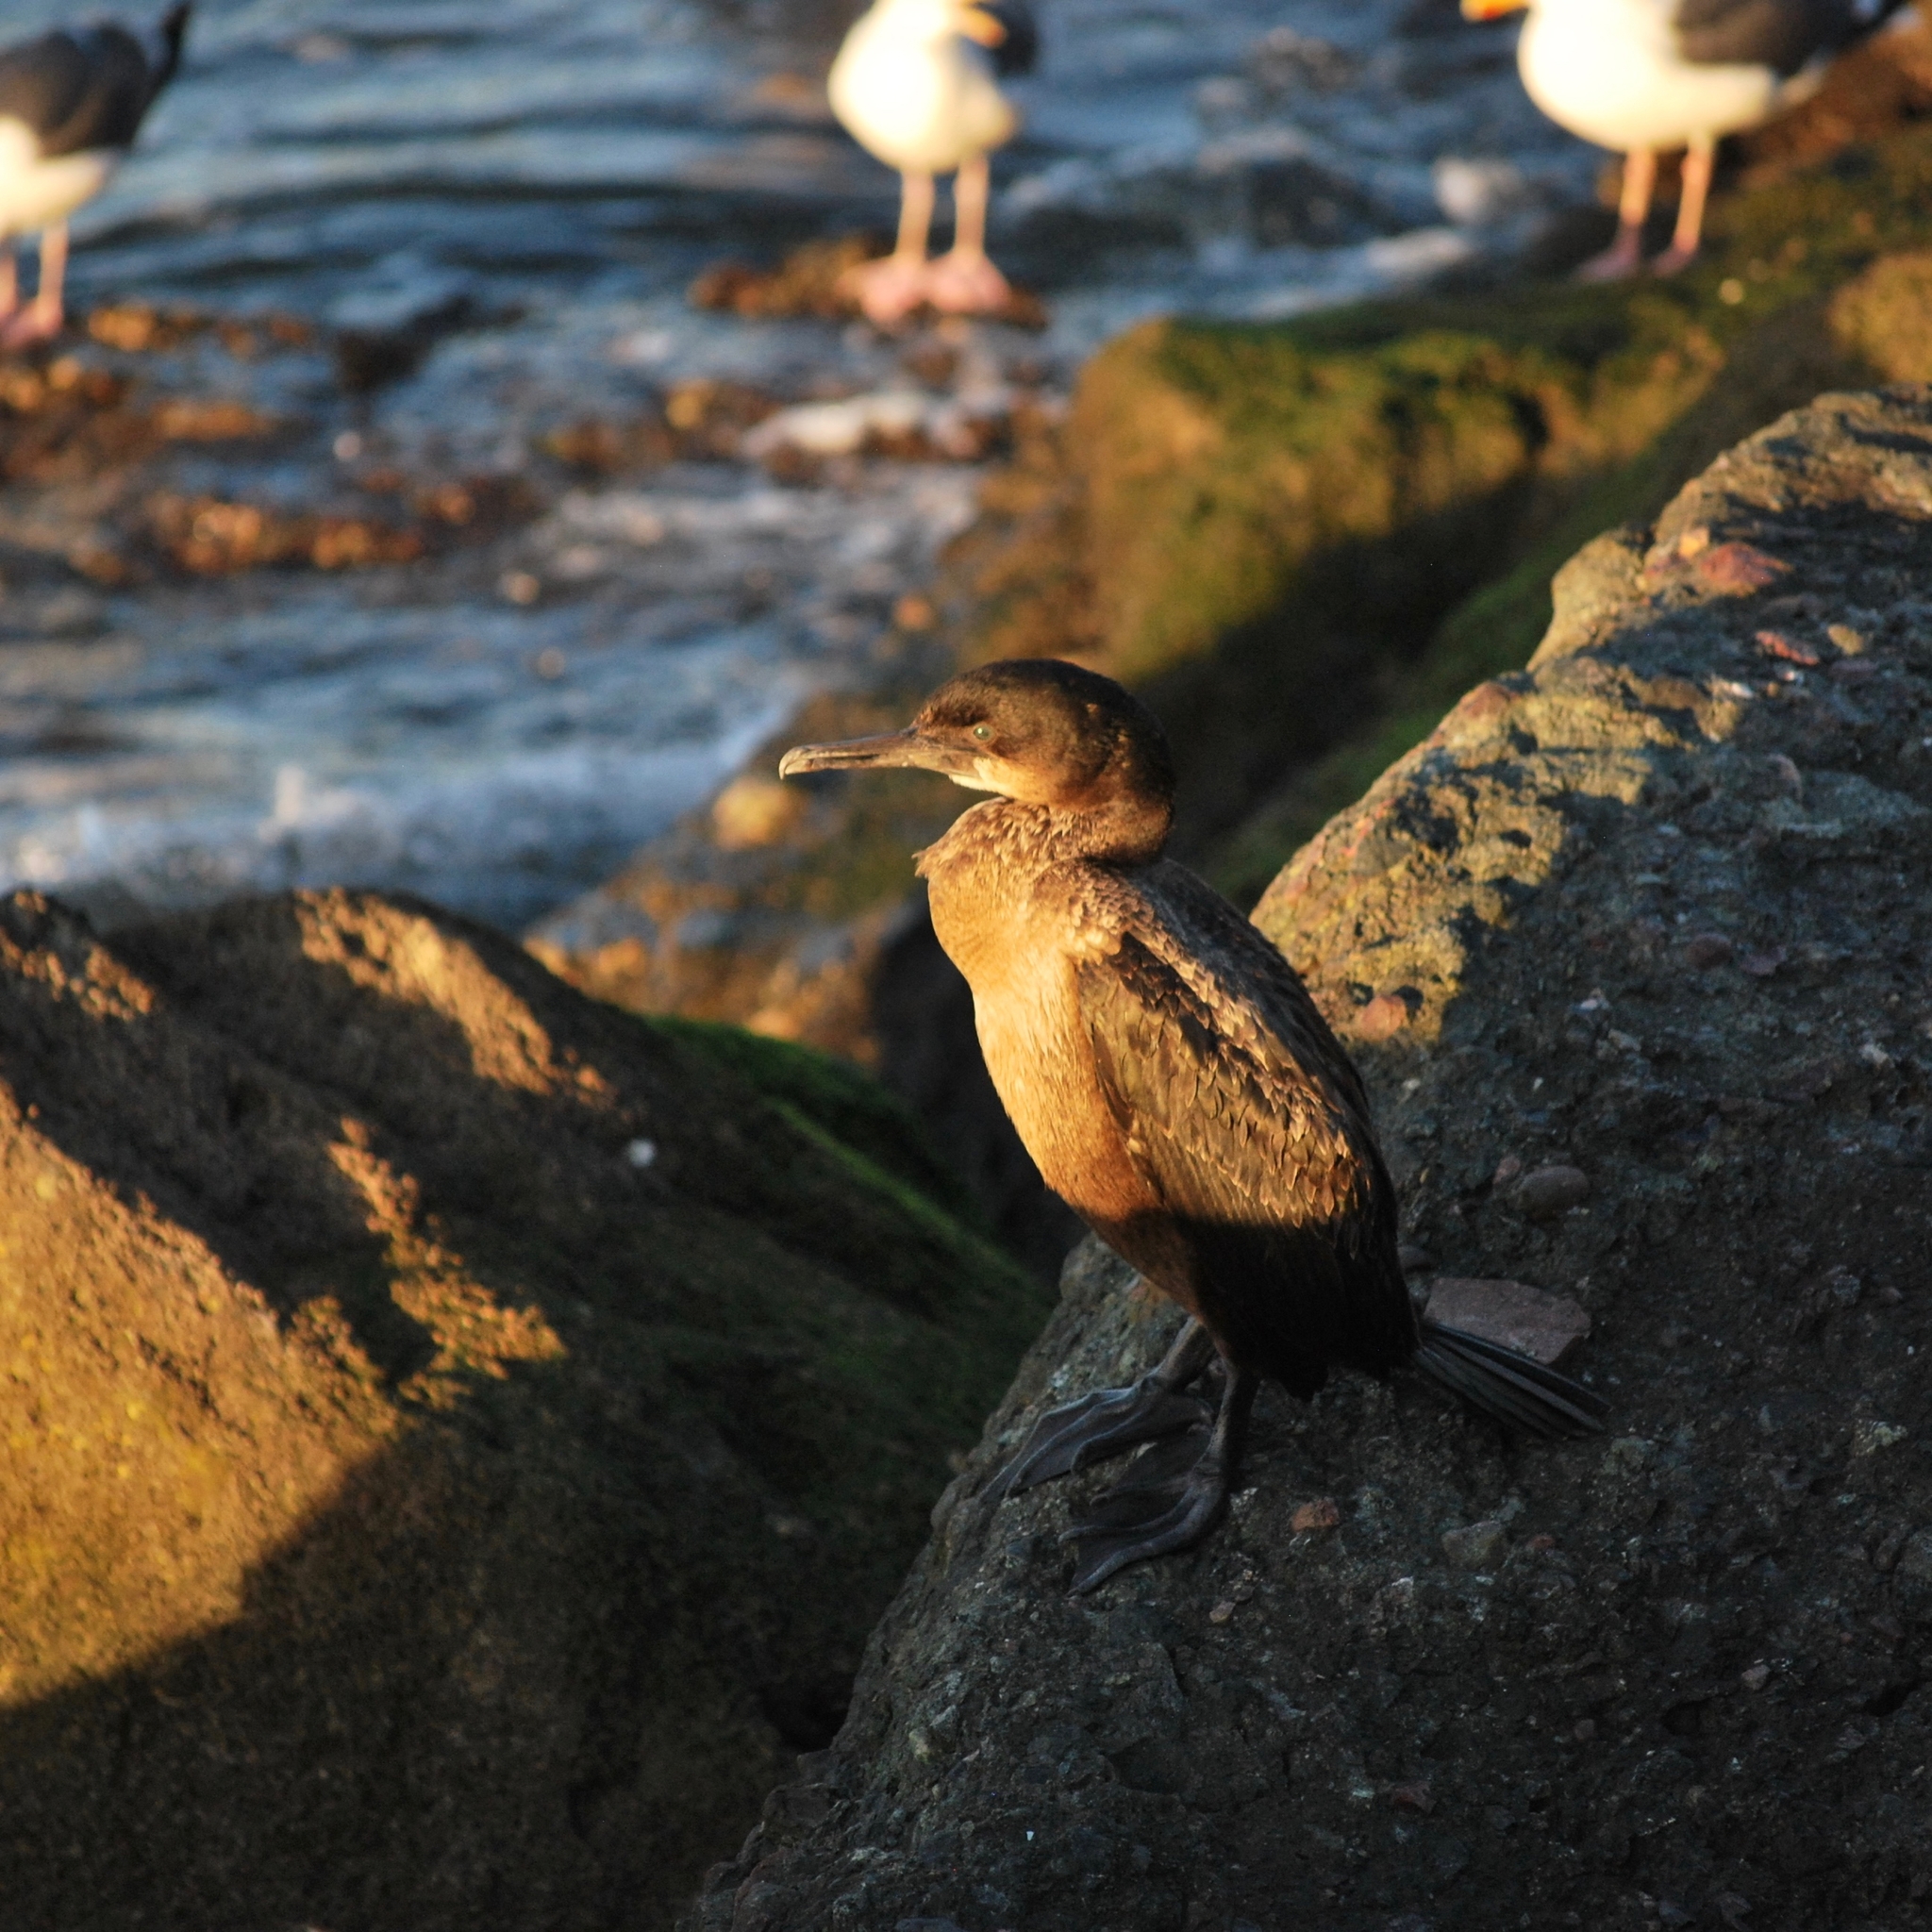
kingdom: Animalia
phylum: Chordata
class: Aves
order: Suliformes
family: Phalacrocoracidae
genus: Urile
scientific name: Urile penicillatus
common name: Brandt's cormorant
